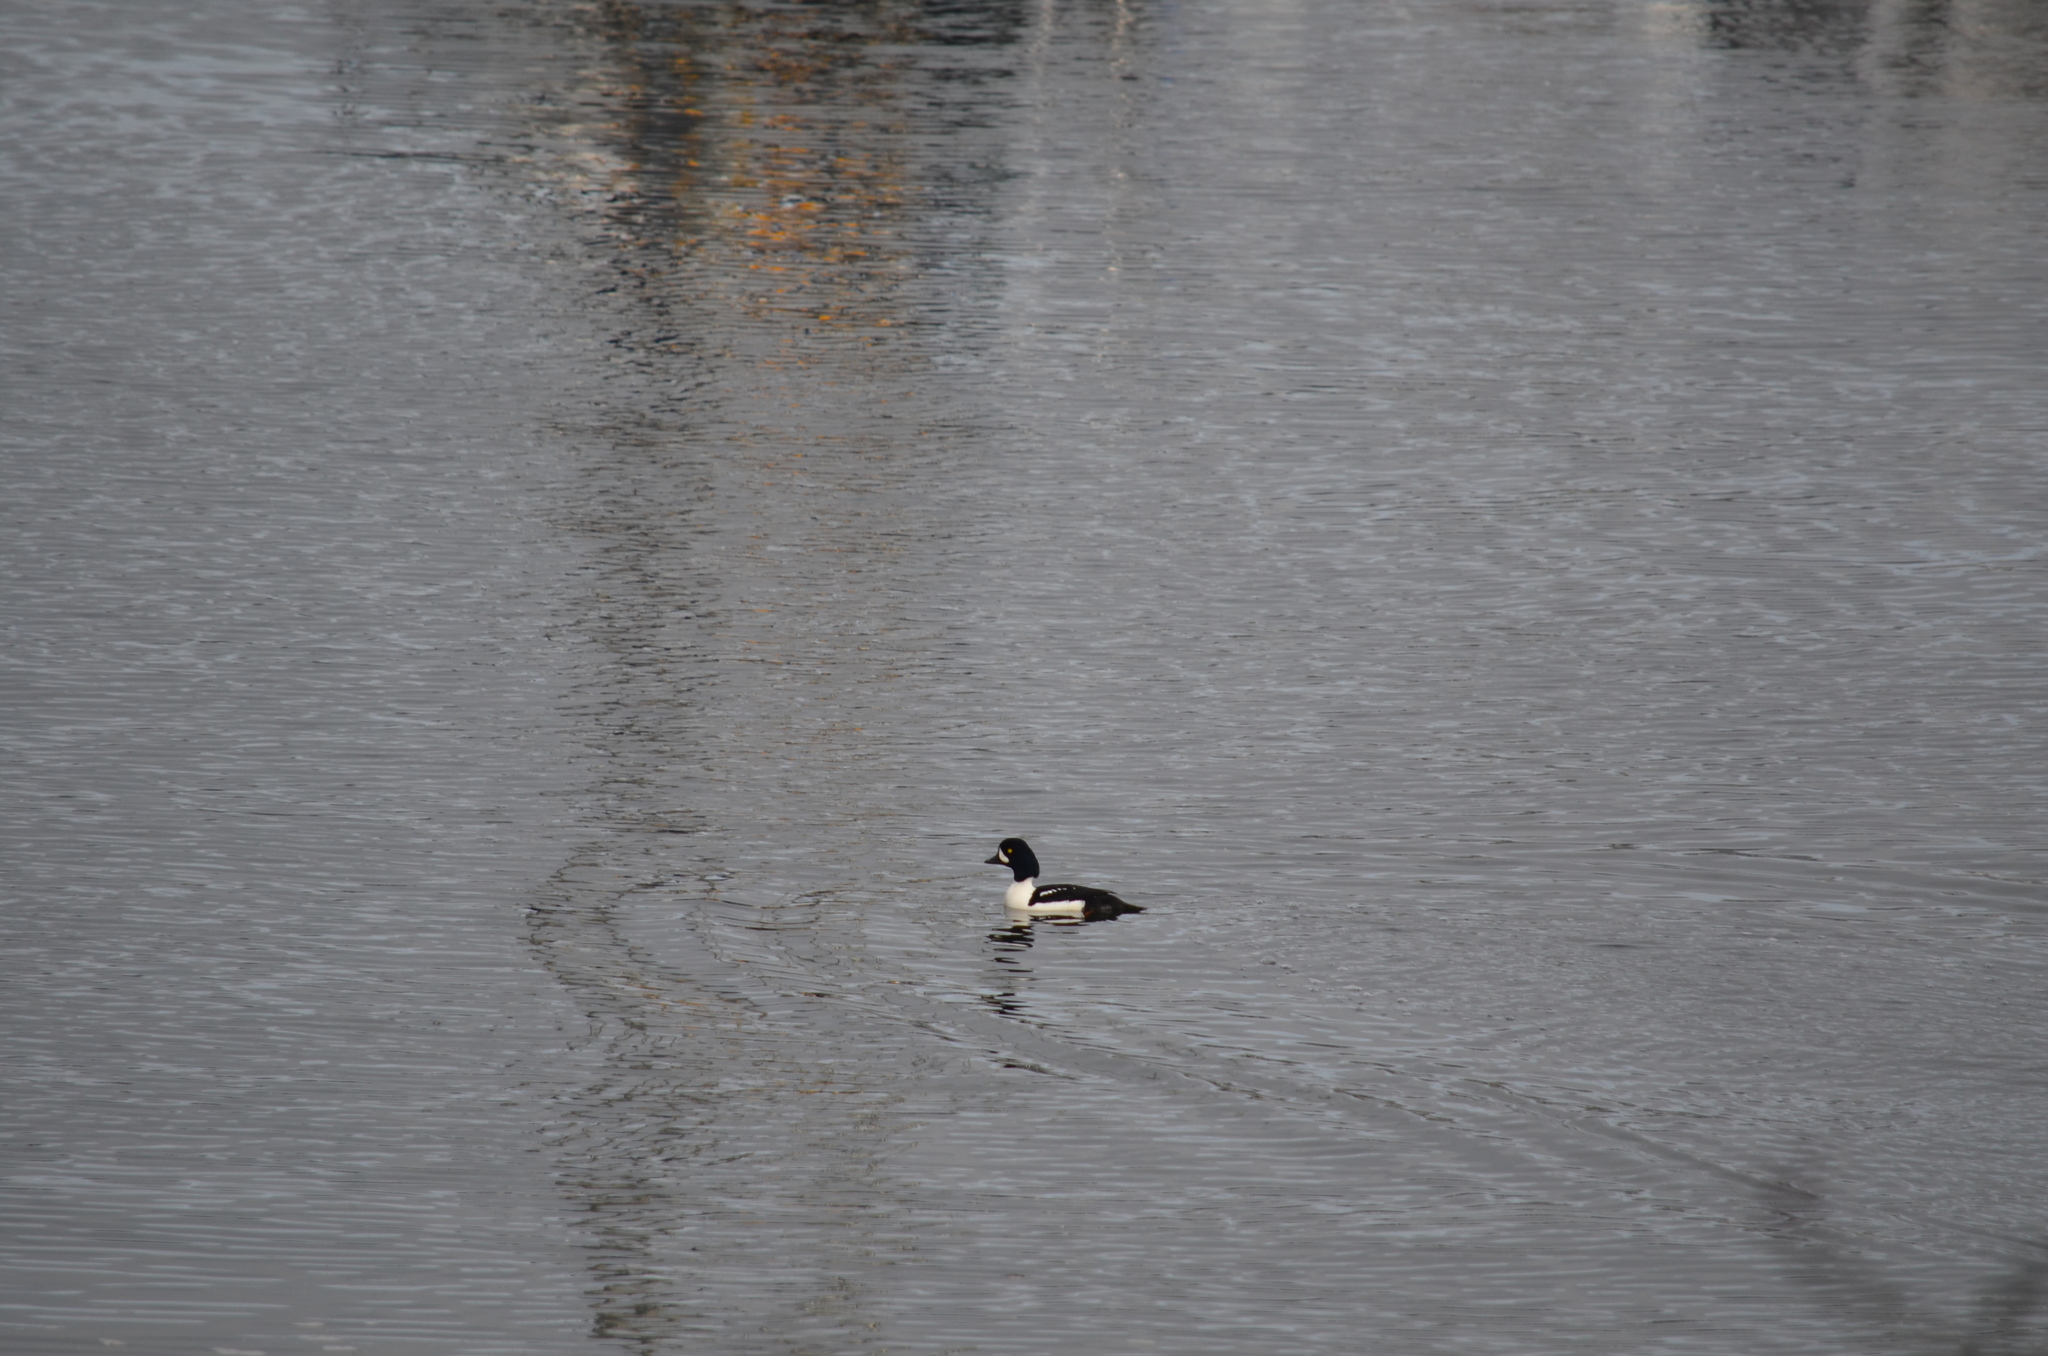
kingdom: Animalia
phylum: Chordata
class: Aves
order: Anseriformes
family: Anatidae
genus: Bucephala
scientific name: Bucephala islandica
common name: Barrow's goldeneye
